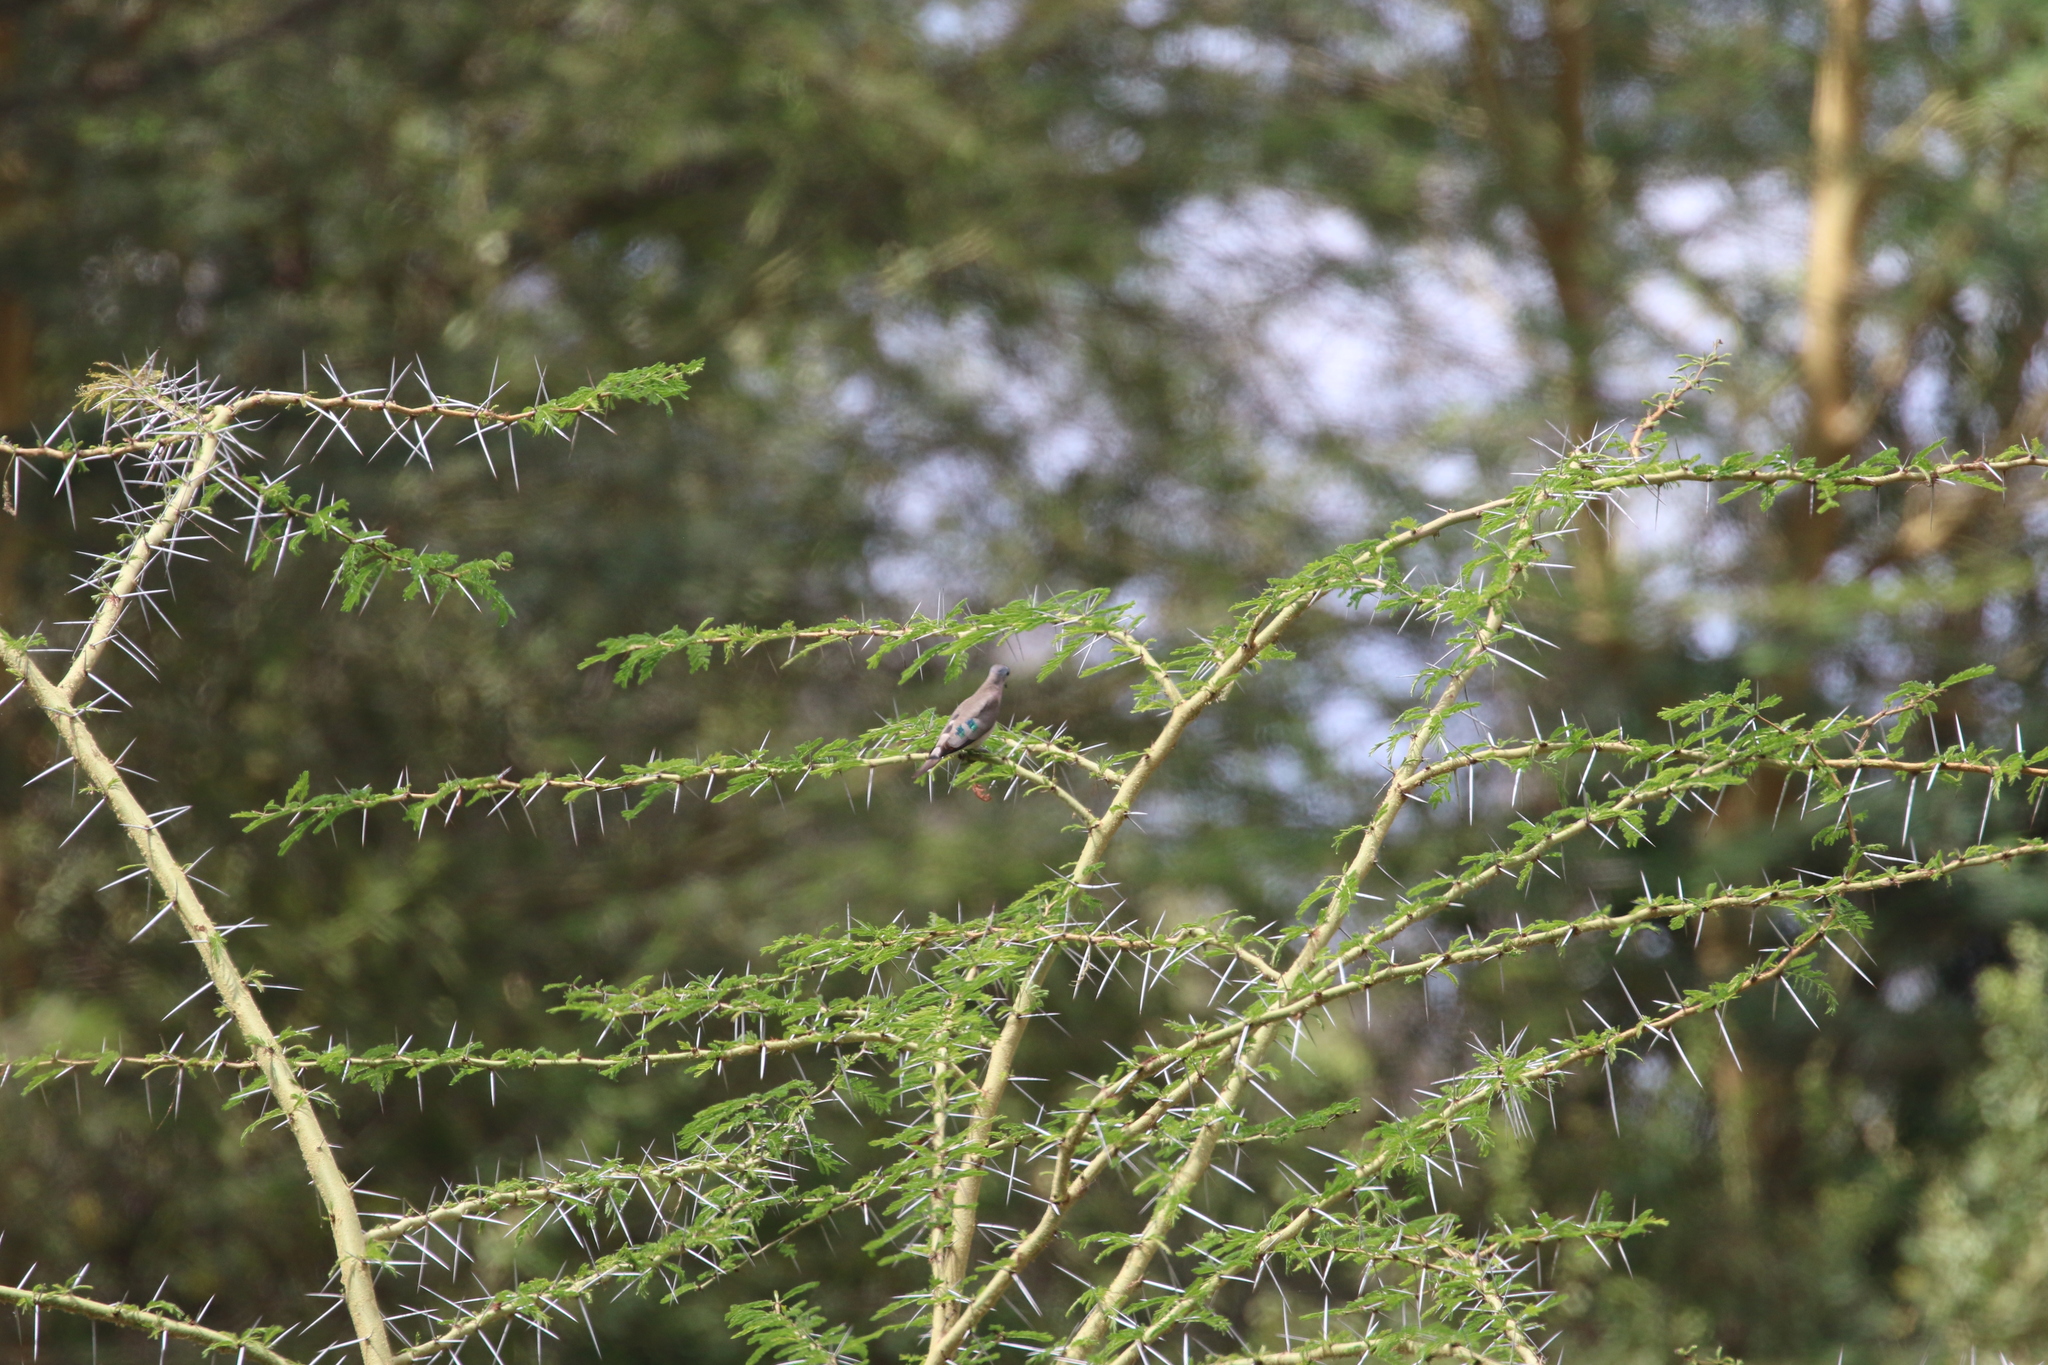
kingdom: Animalia
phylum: Chordata
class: Aves
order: Columbiformes
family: Columbidae
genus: Turtur
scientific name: Turtur chalcospilos
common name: Emerald-spotted wood dove
